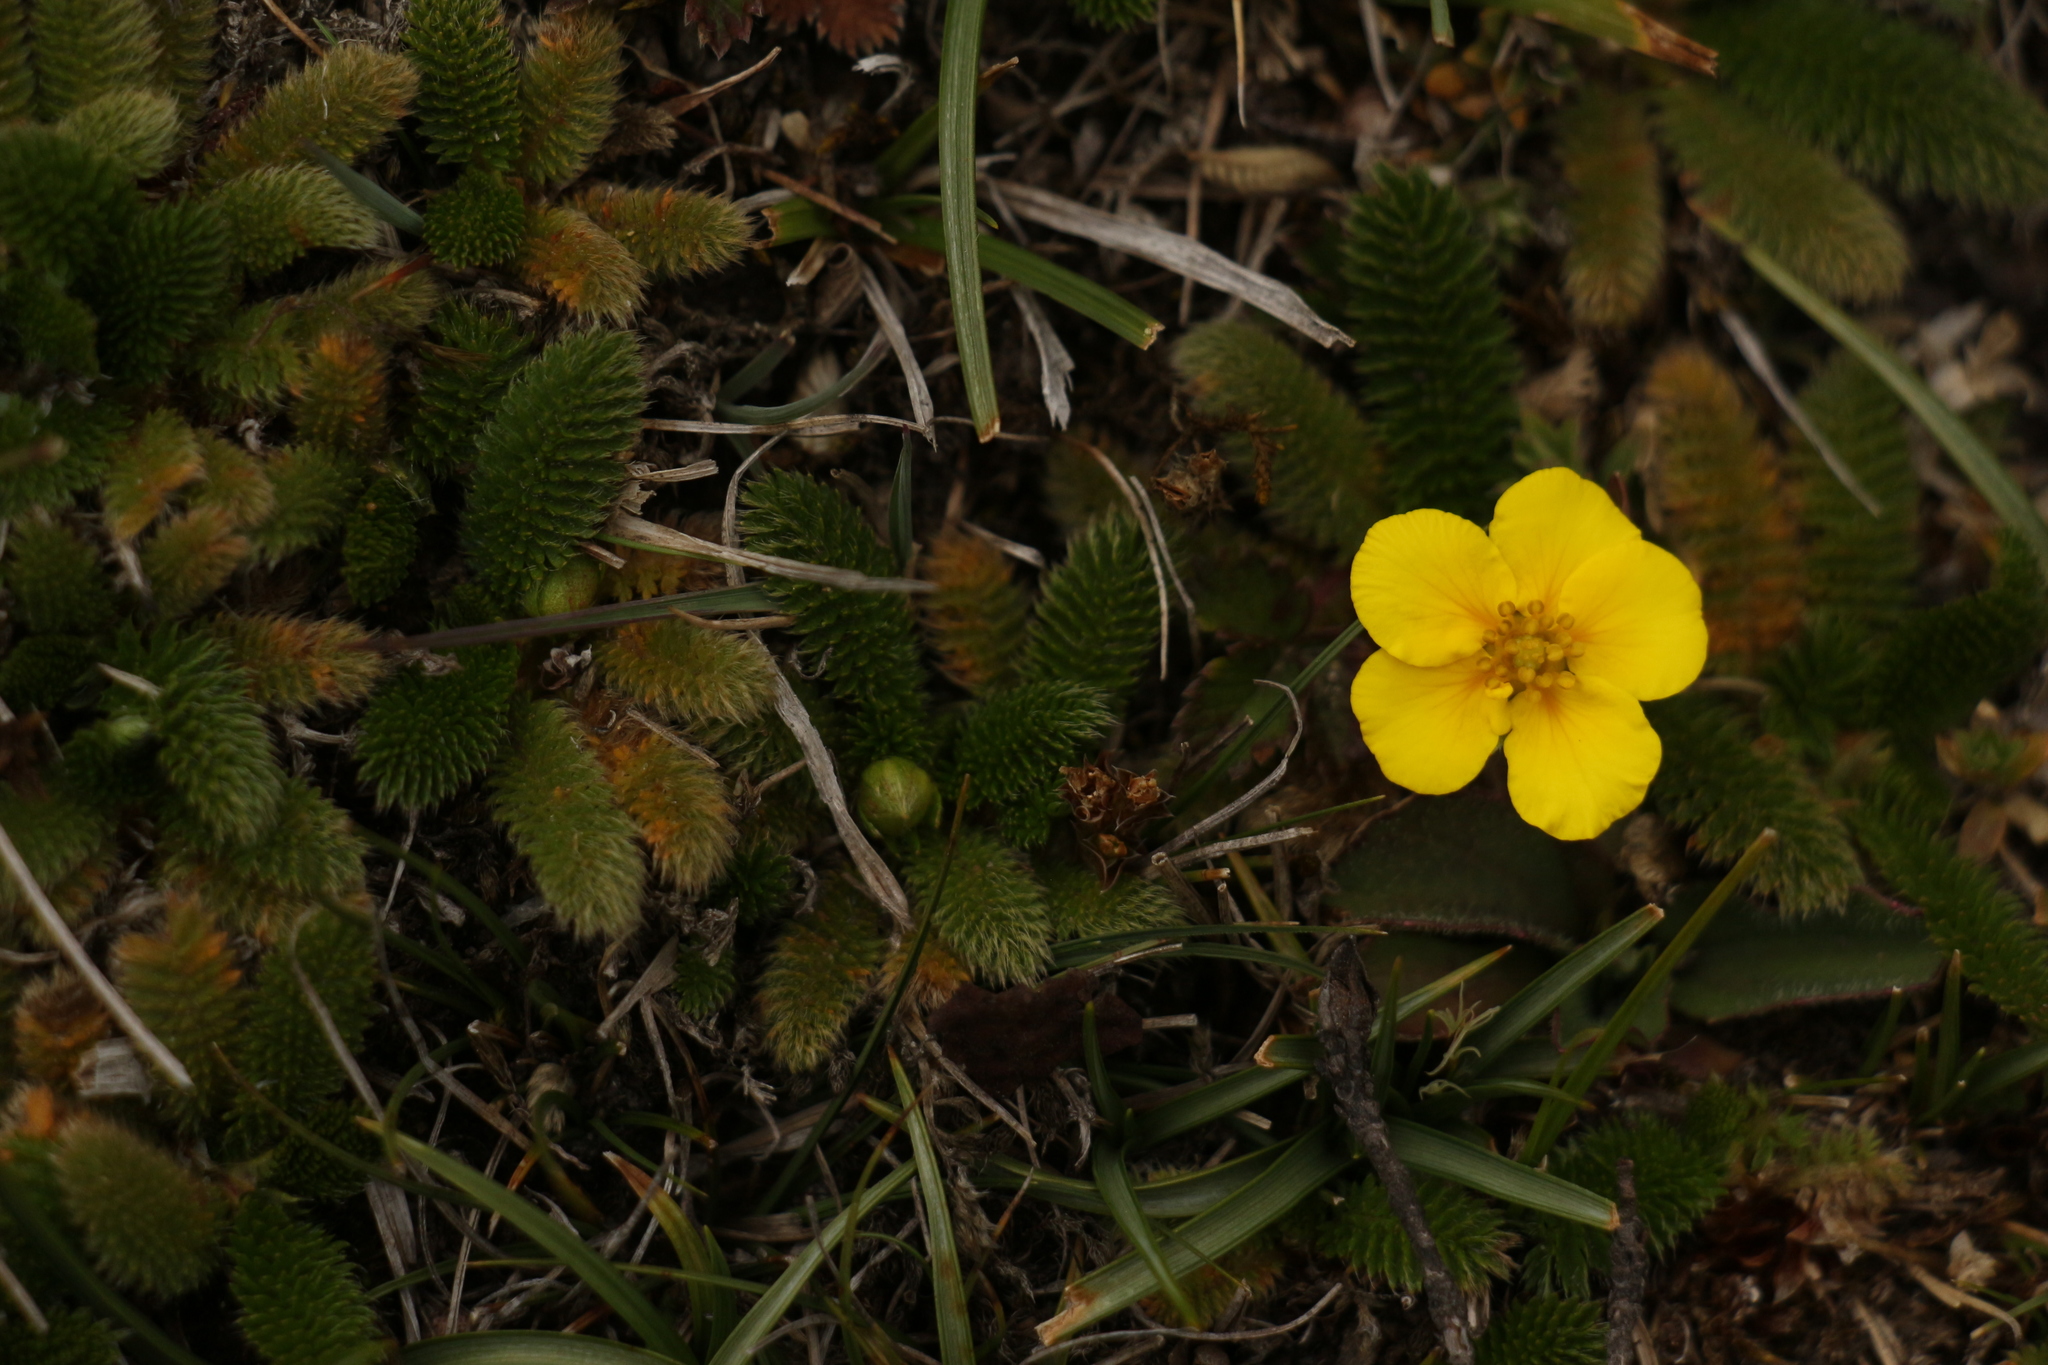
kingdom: Plantae
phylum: Tracheophyta
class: Magnoliopsida
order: Rosales
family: Rosaceae
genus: Argentina
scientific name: Argentina microphylla
